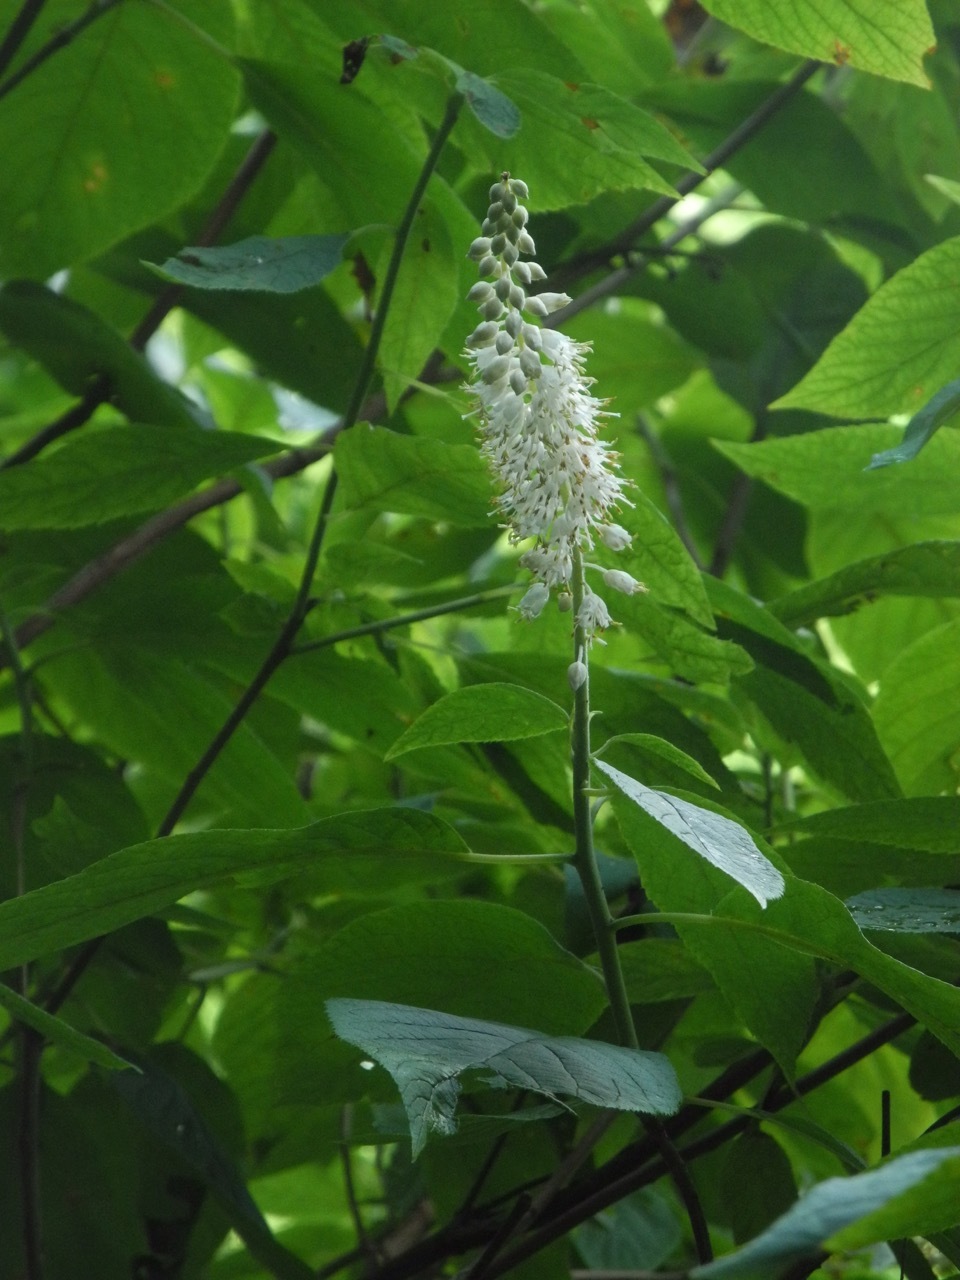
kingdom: Plantae
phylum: Tracheophyta
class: Magnoliopsida
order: Ericales
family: Clethraceae
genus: Clethra
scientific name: Clethra acuminata
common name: Mountain sweet pepperbush
